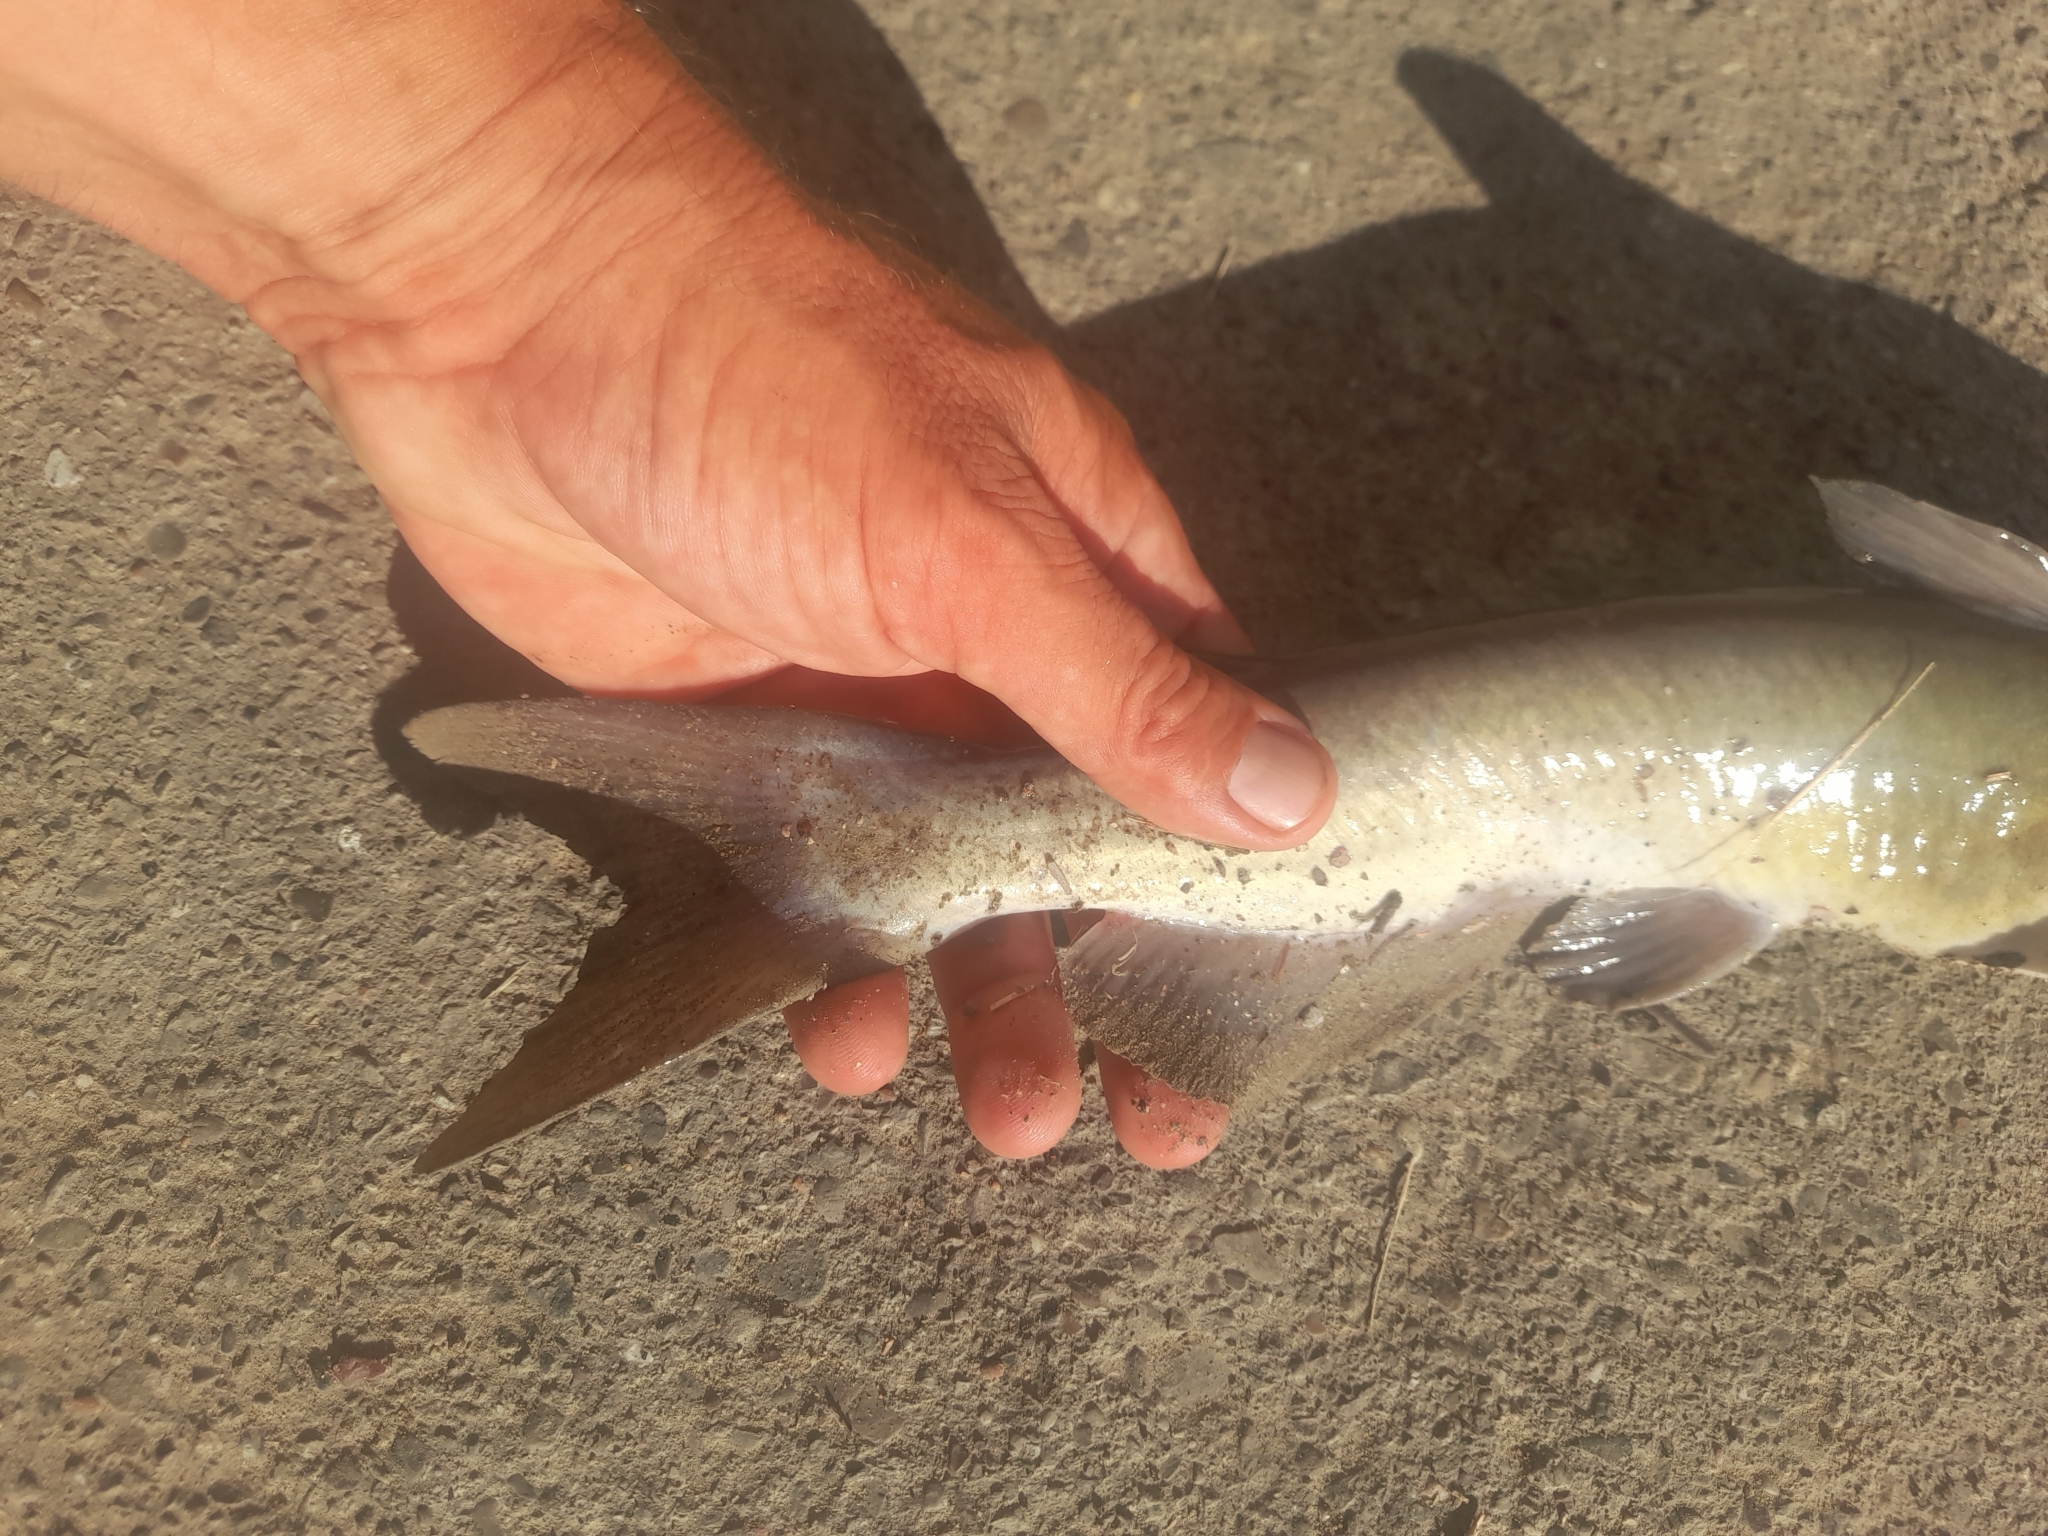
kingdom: Animalia
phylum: Chordata
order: Siluriformes
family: Ictaluridae
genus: Ictalurus
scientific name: Ictalurus punctatus
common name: Channel catfish
